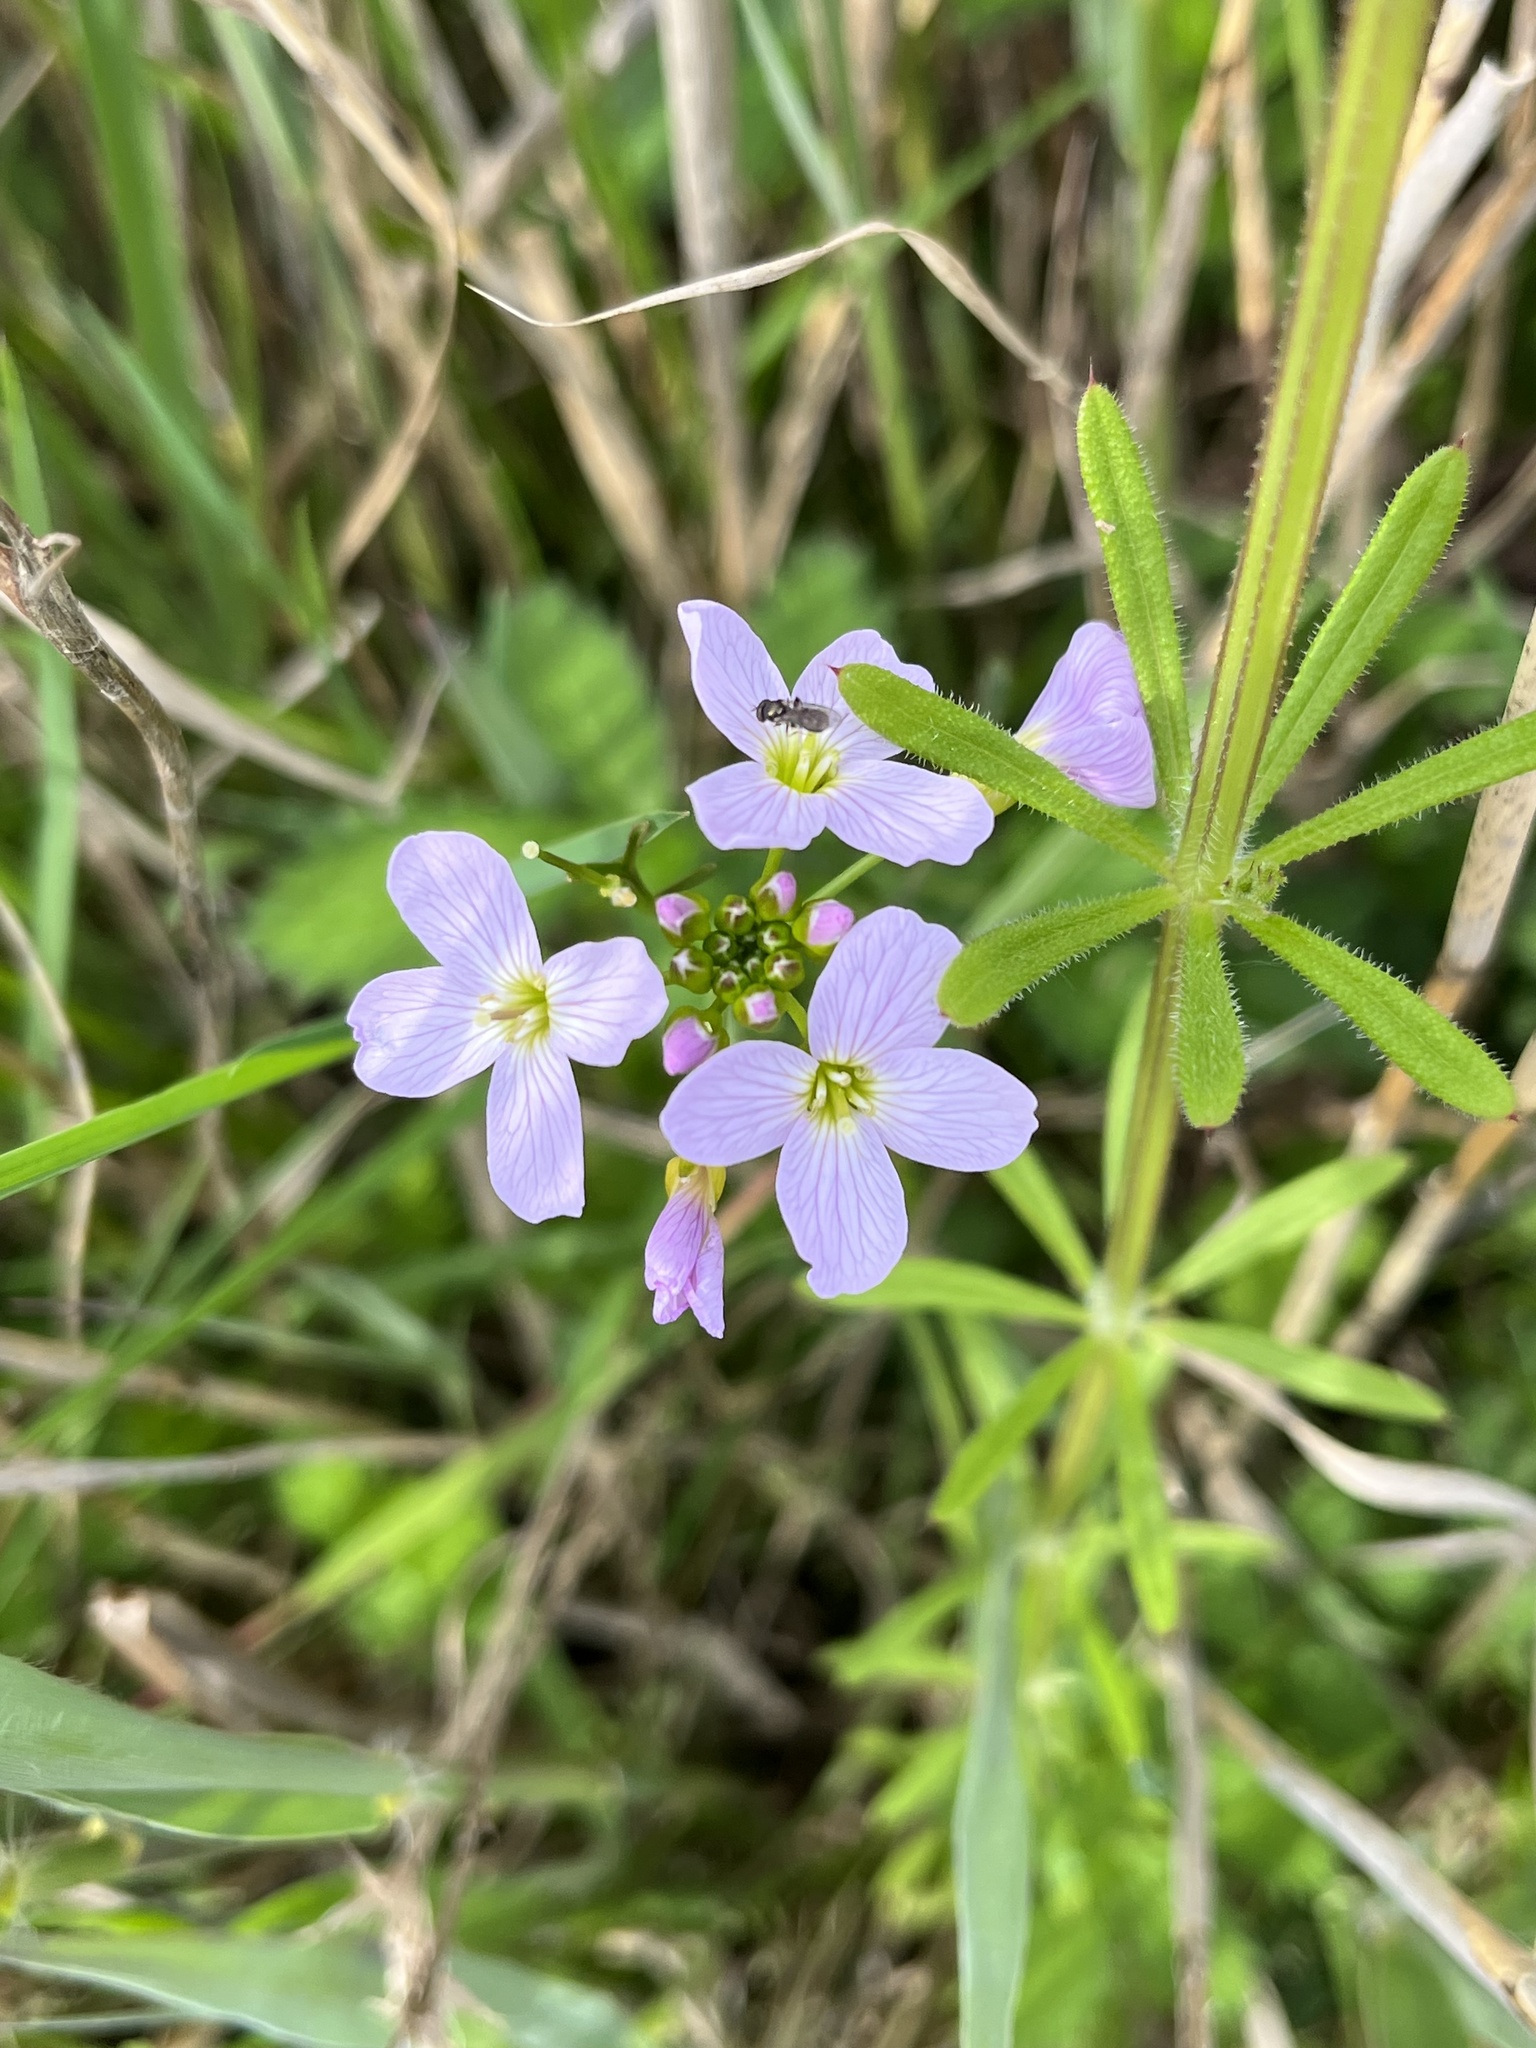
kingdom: Plantae
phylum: Tracheophyta
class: Magnoliopsida
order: Brassicales
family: Brassicaceae
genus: Cardamine
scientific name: Cardamine pratensis
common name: Cuckoo flower
